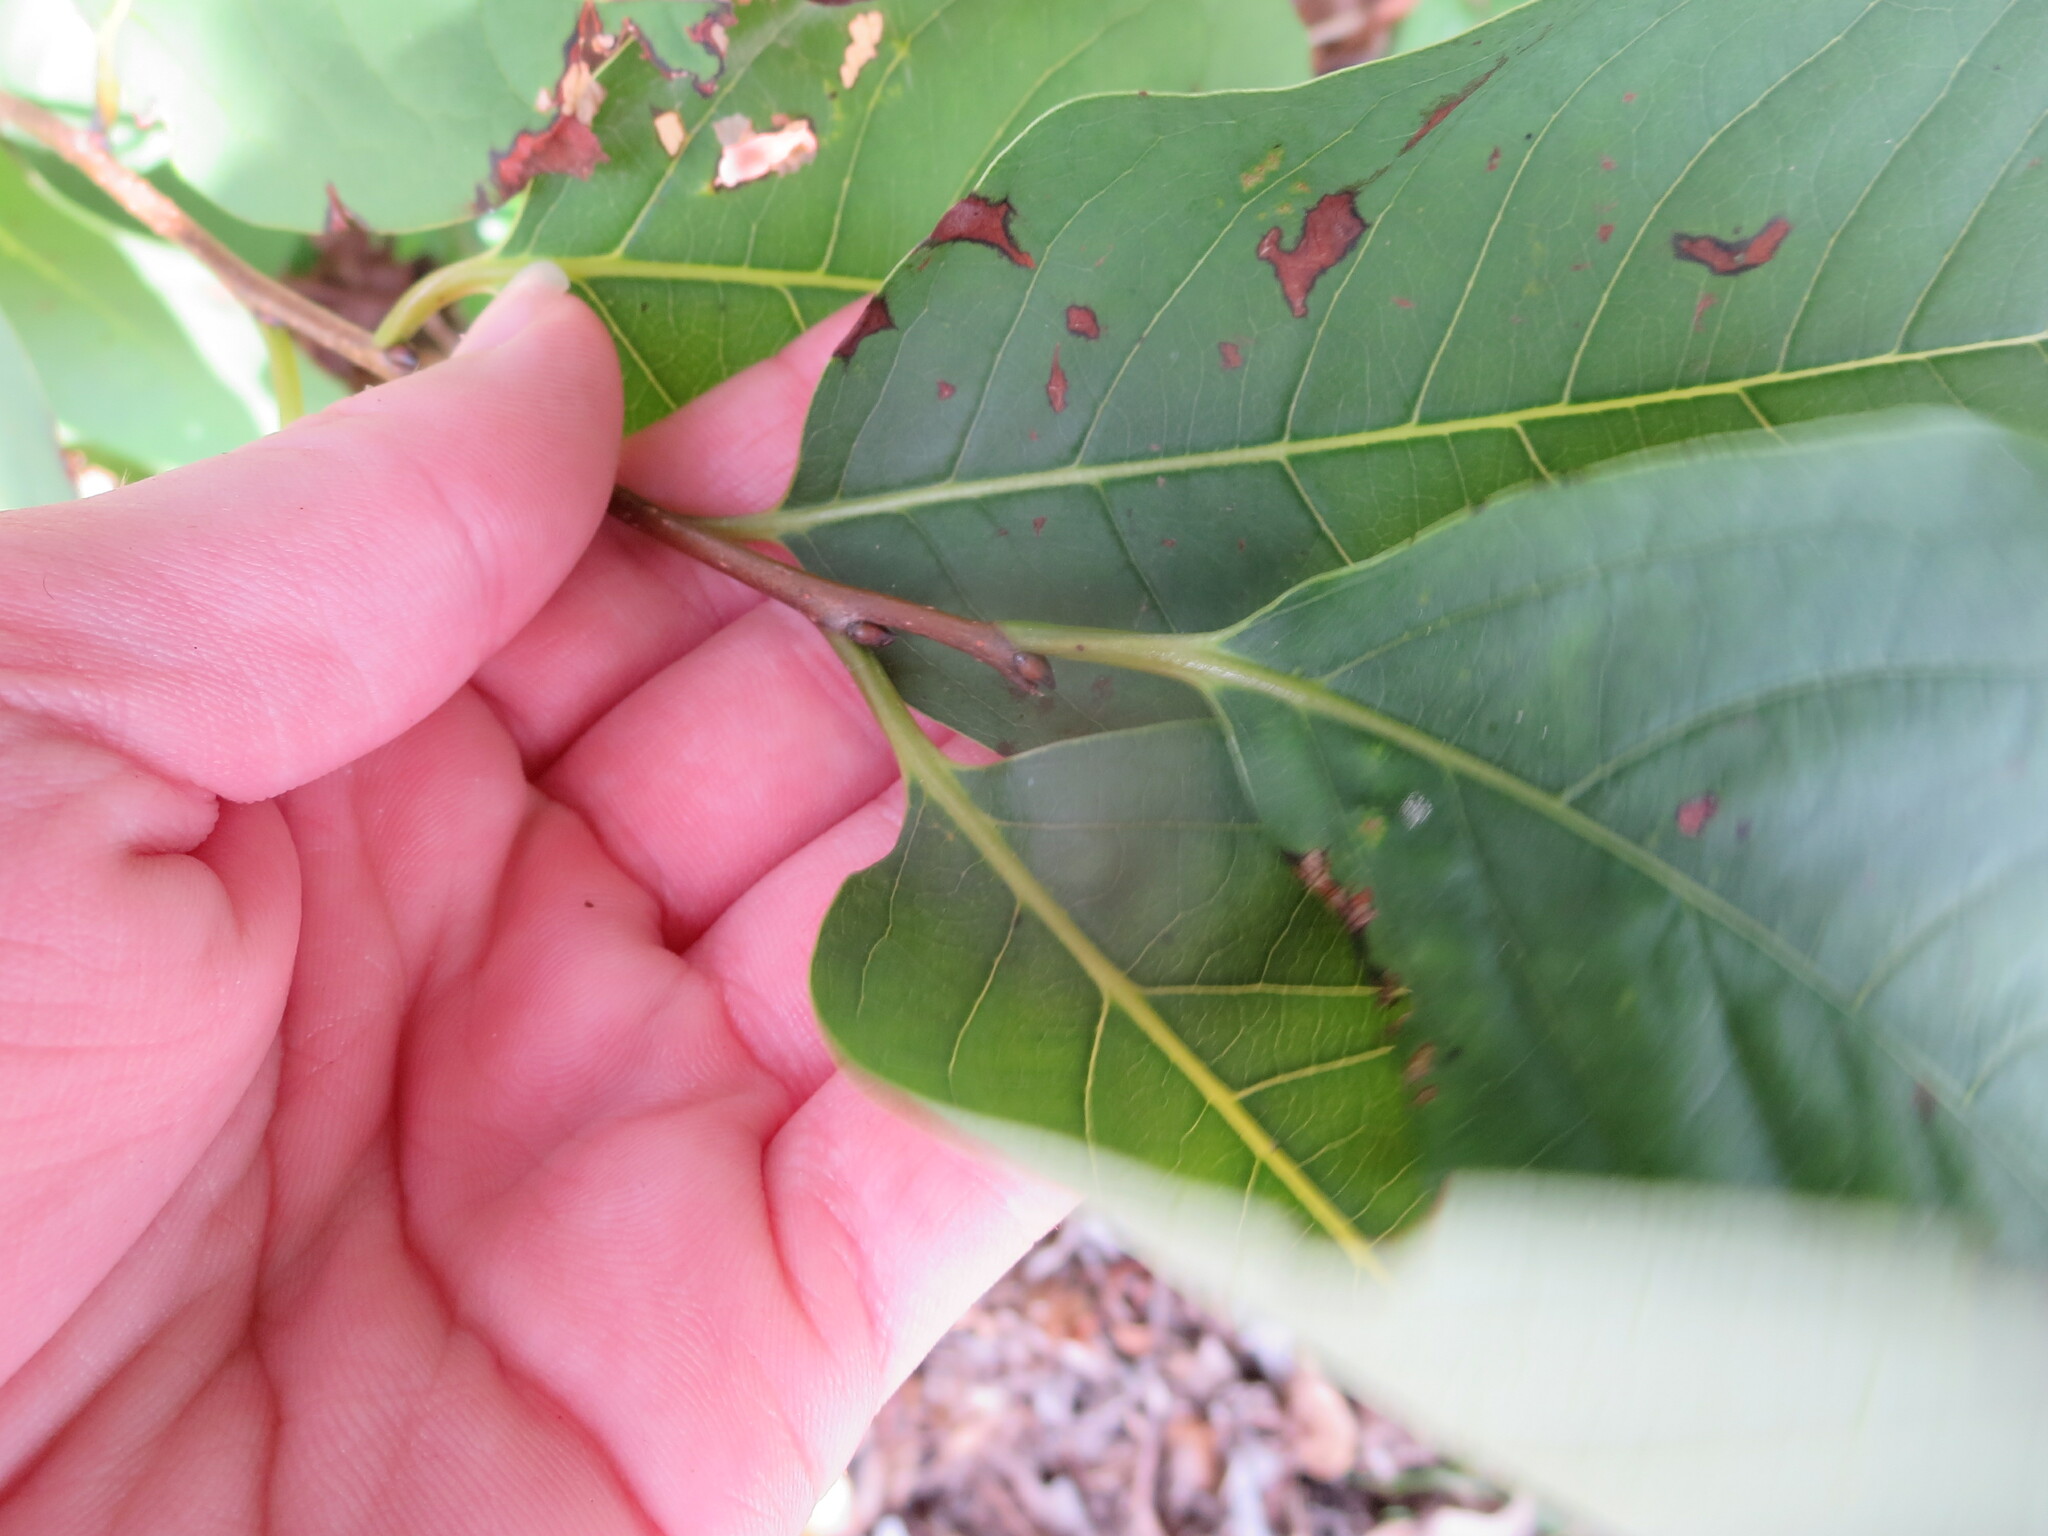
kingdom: Plantae
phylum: Tracheophyta
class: Magnoliopsida
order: Ericales
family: Ebenaceae
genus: Diospyros
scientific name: Diospyros virginiana
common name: Persimmon
